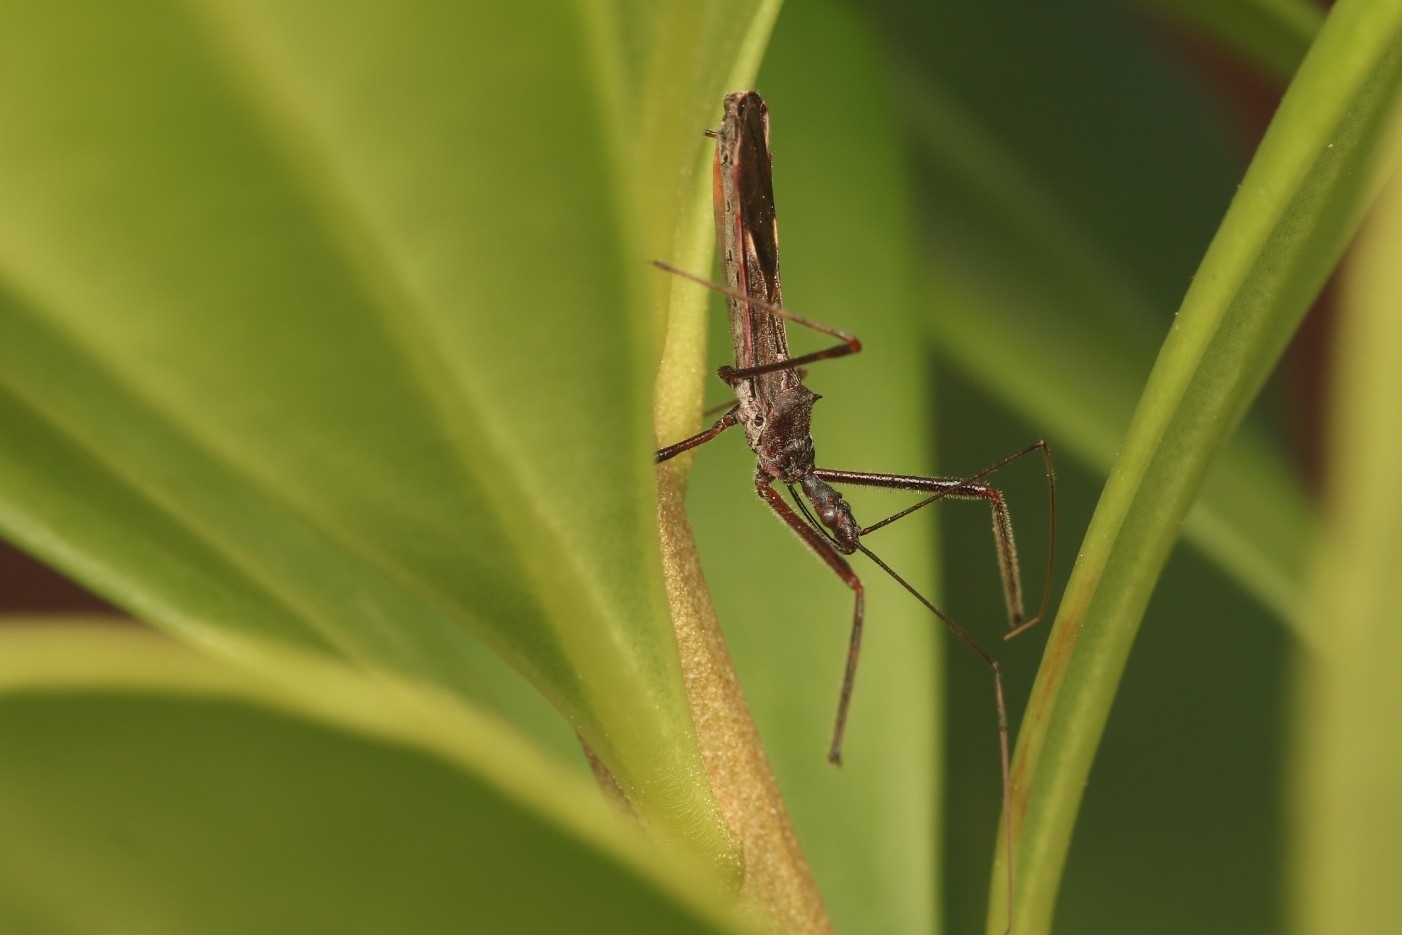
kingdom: Animalia
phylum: Arthropoda
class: Insecta
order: Hemiptera
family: Reduviidae
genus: Zelus
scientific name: Zelus tetracanthus
